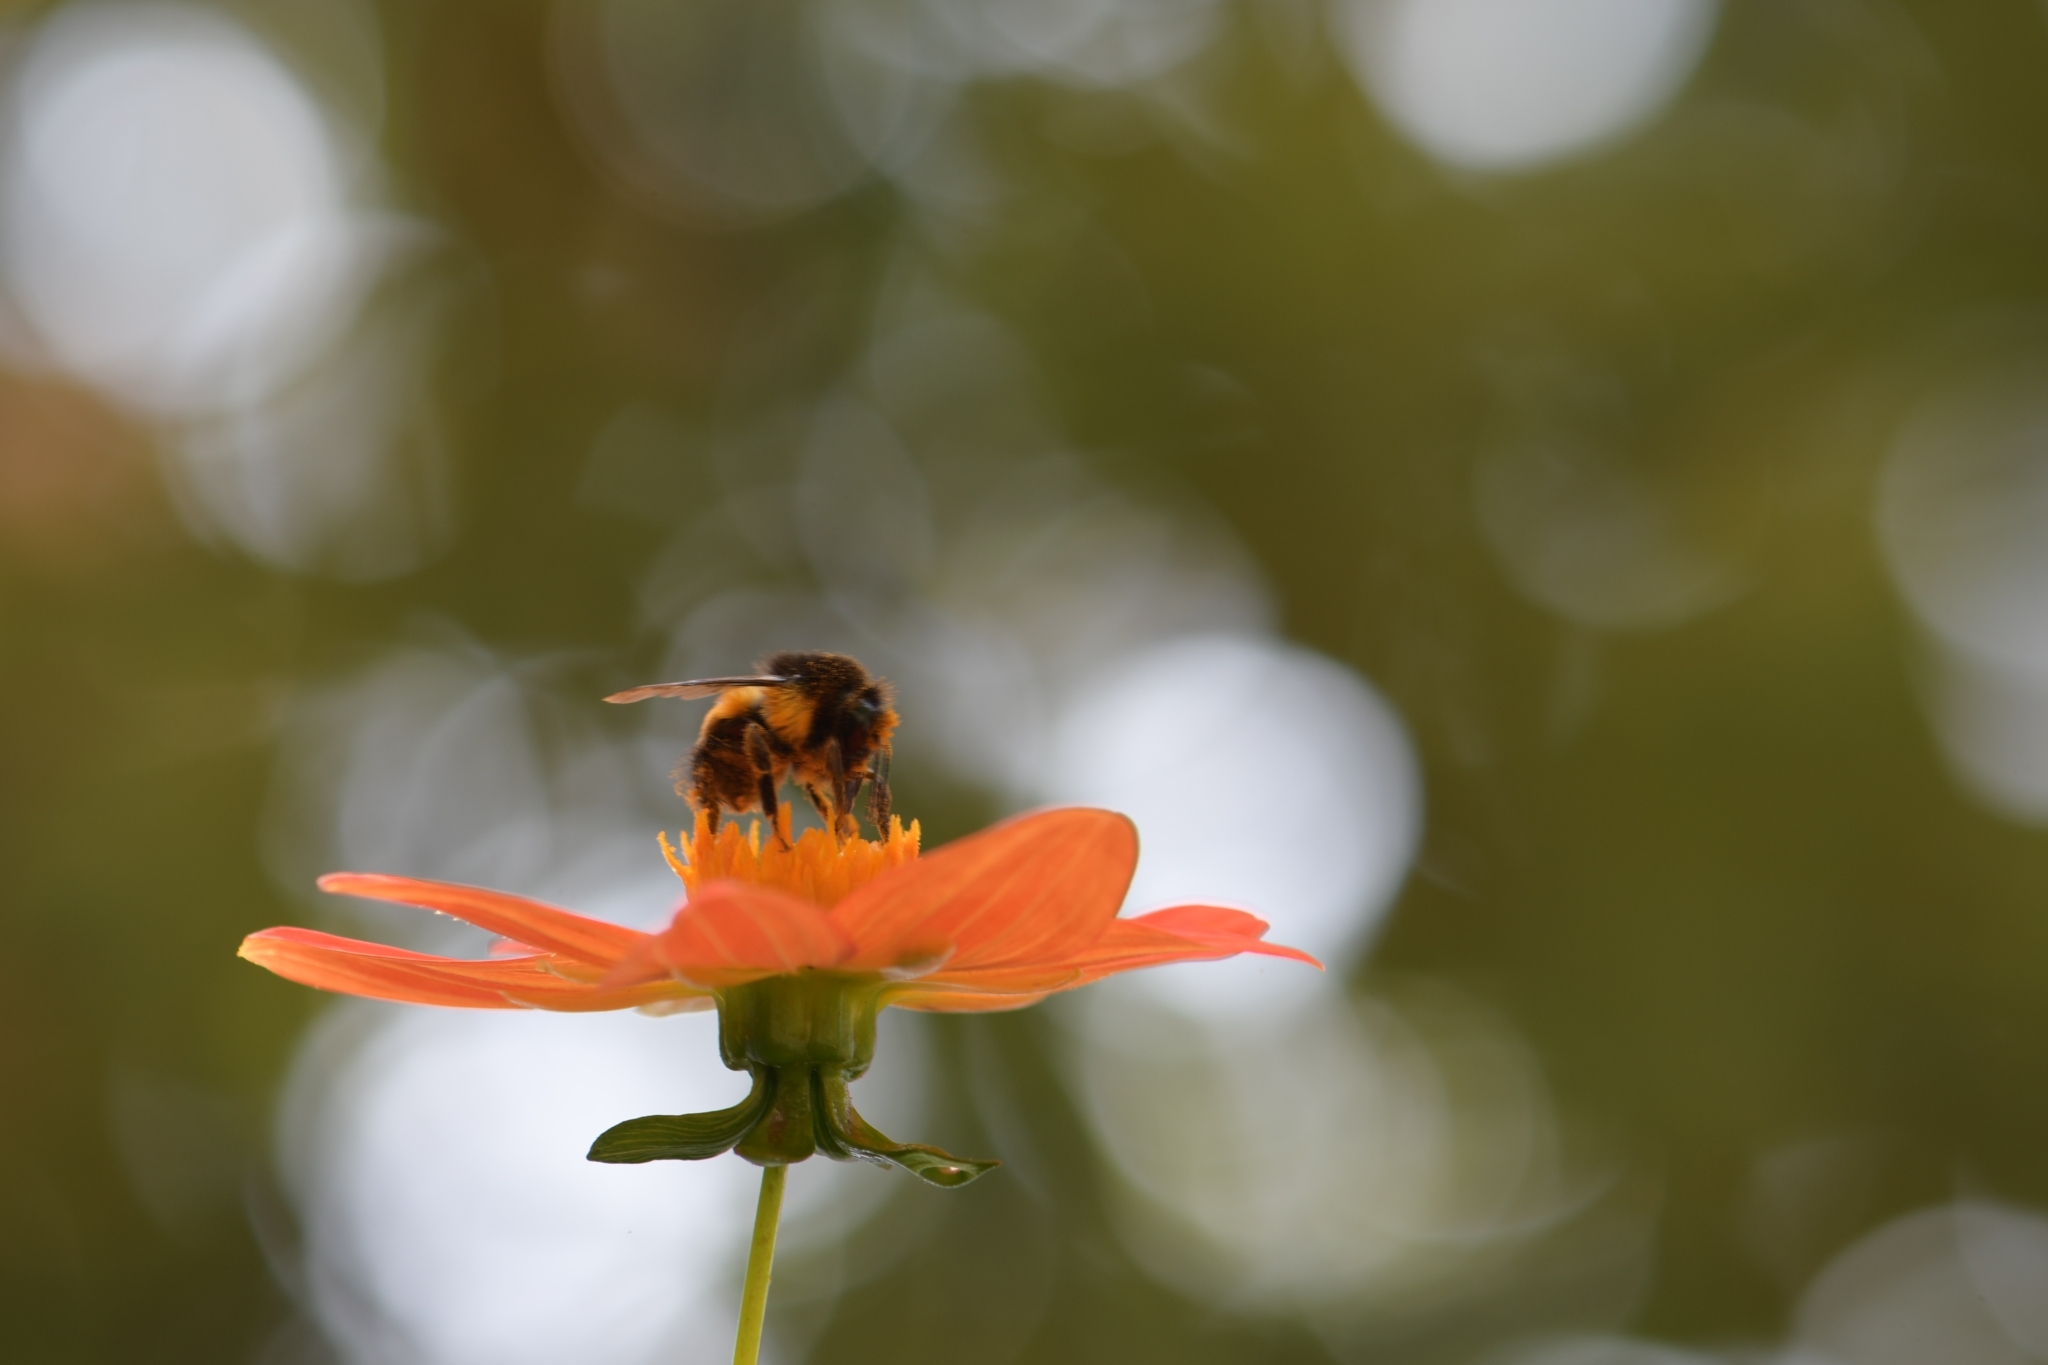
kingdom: Animalia
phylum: Arthropoda
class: Insecta
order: Hymenoptera
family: Apidae
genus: Bombus
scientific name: Bombus ephippiatus
